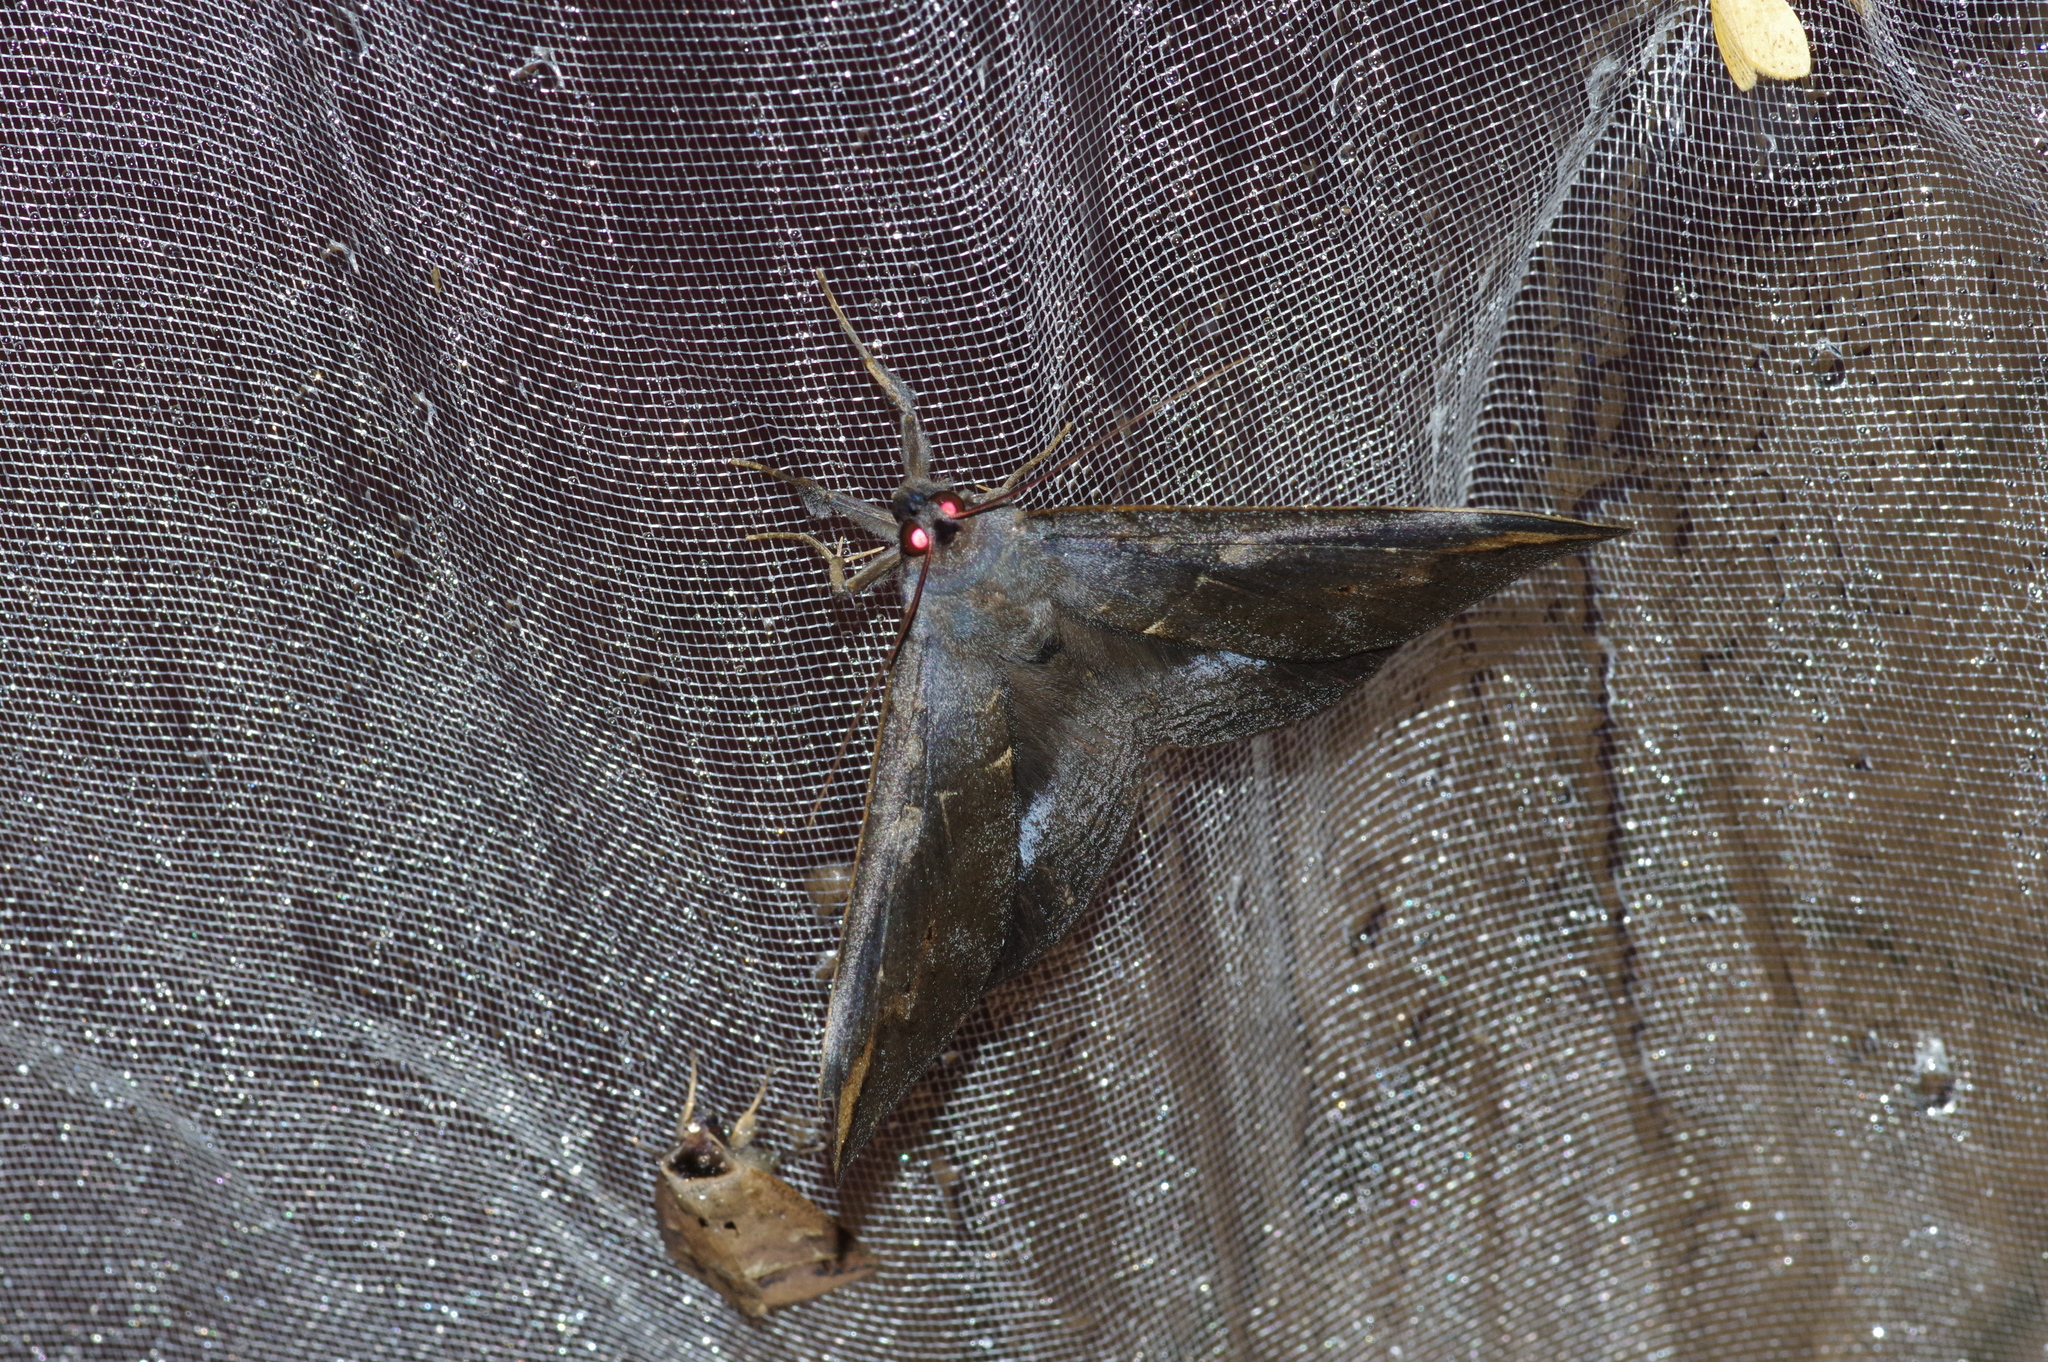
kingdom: Animalia
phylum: Arthropoda
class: Insecta
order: Lepidoptera
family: Erebidae
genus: Ischyja
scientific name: Ischyja ferrifracta
